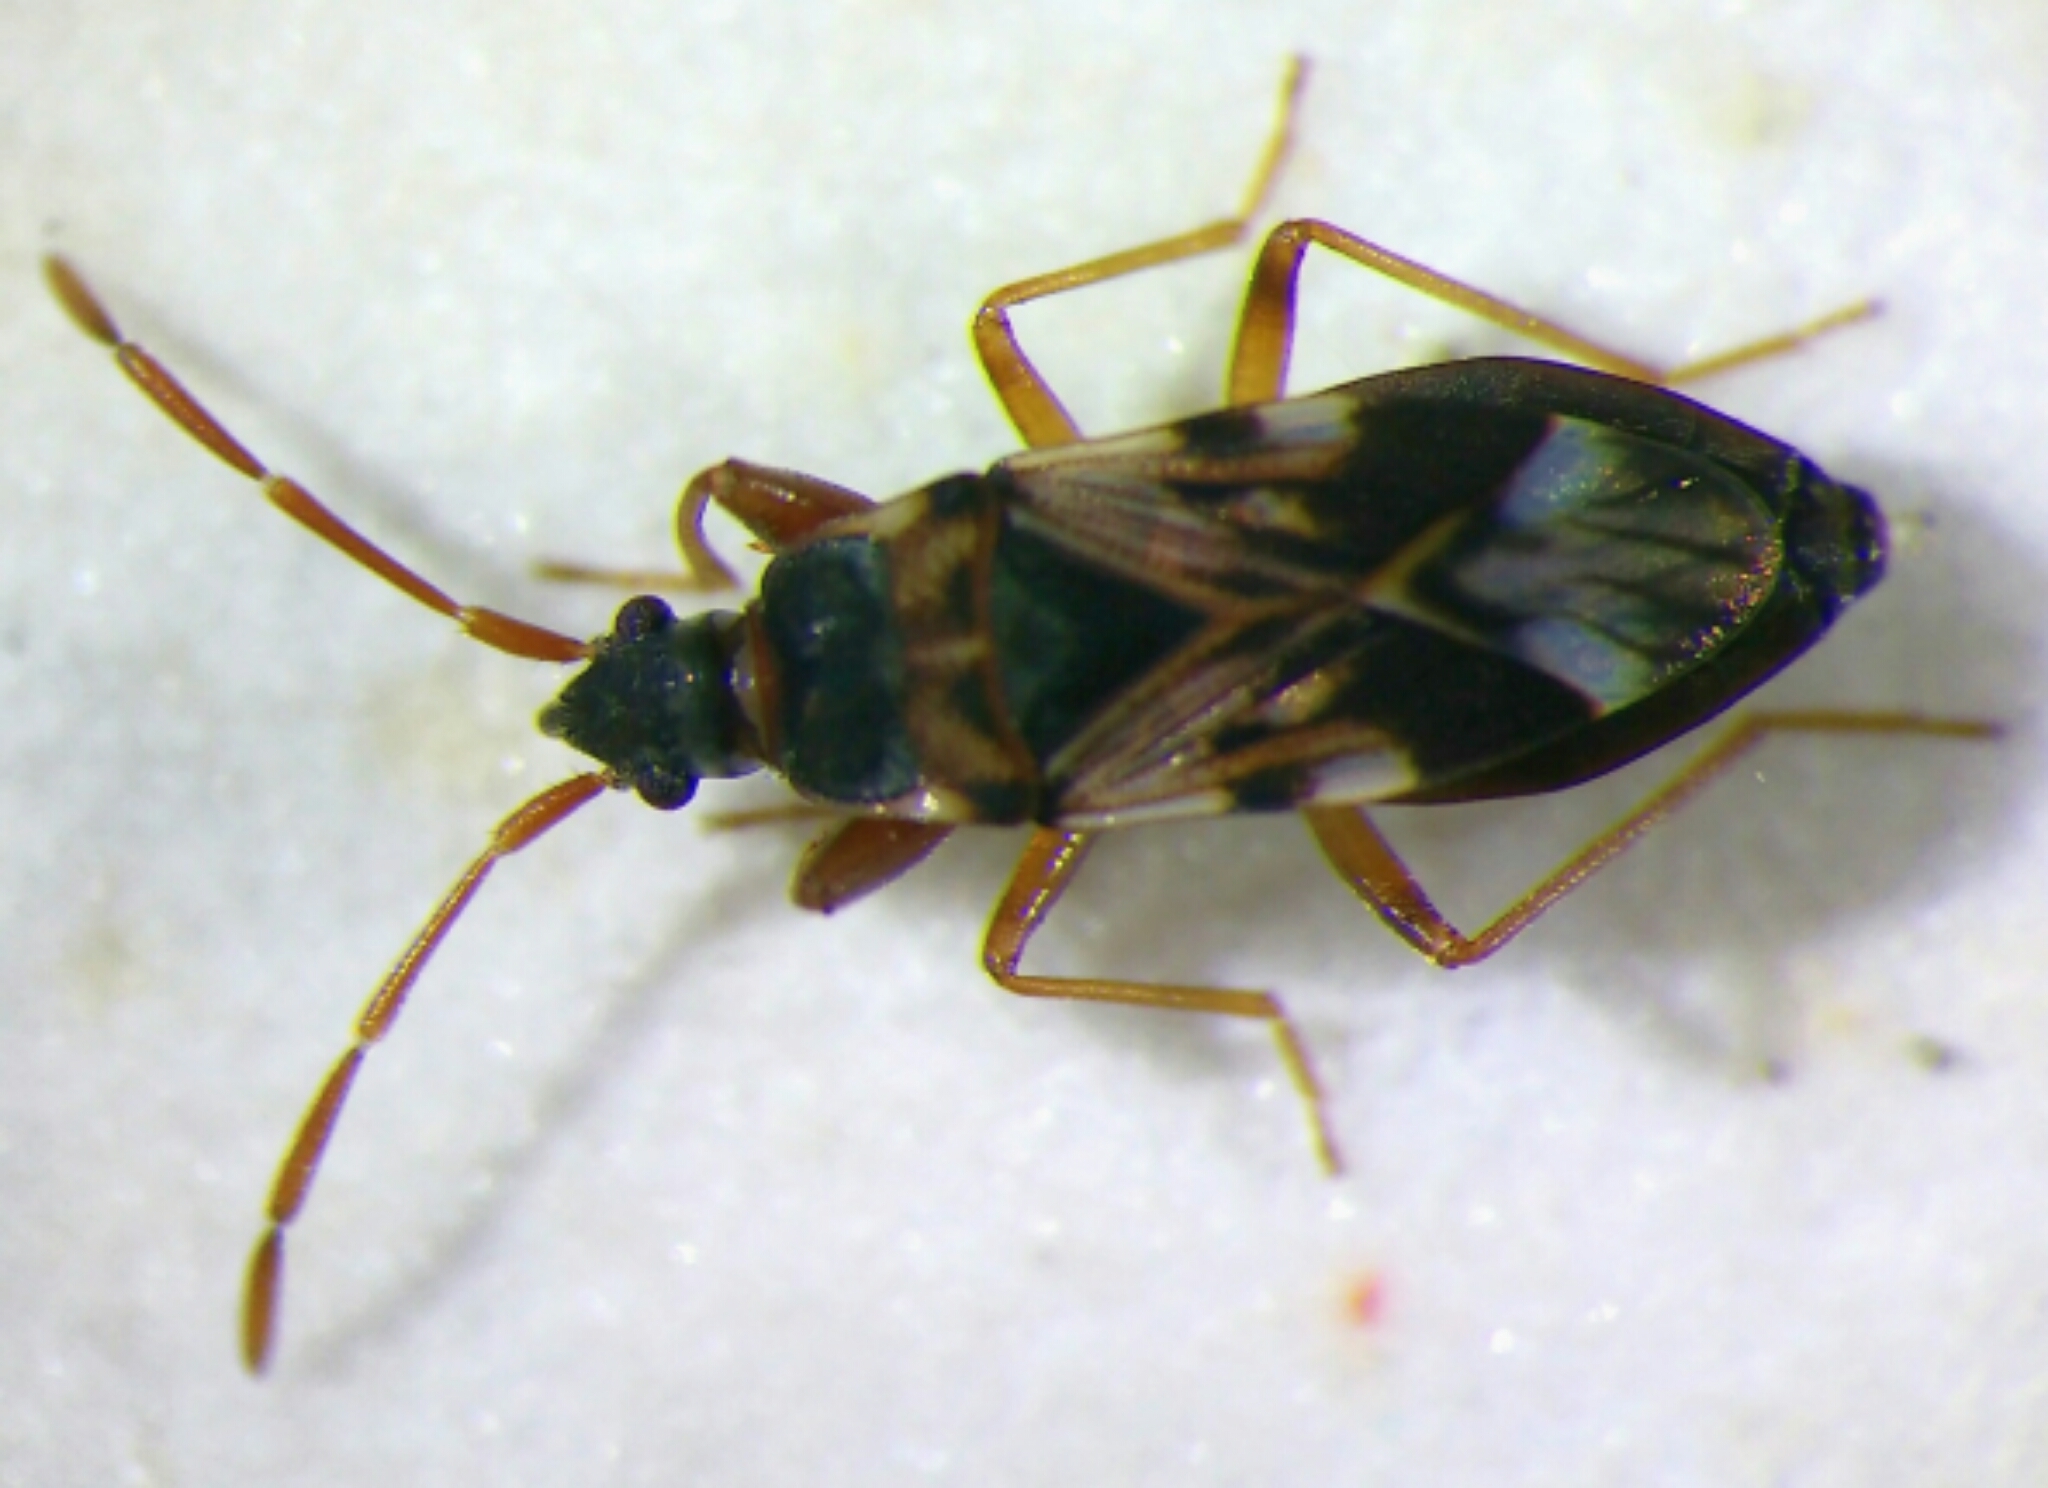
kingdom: Animalia
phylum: Arthropoda
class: Insecta
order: Hemiptera
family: Rhyparochromidae
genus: Scolopostethus
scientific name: Scolopostethus pictus
